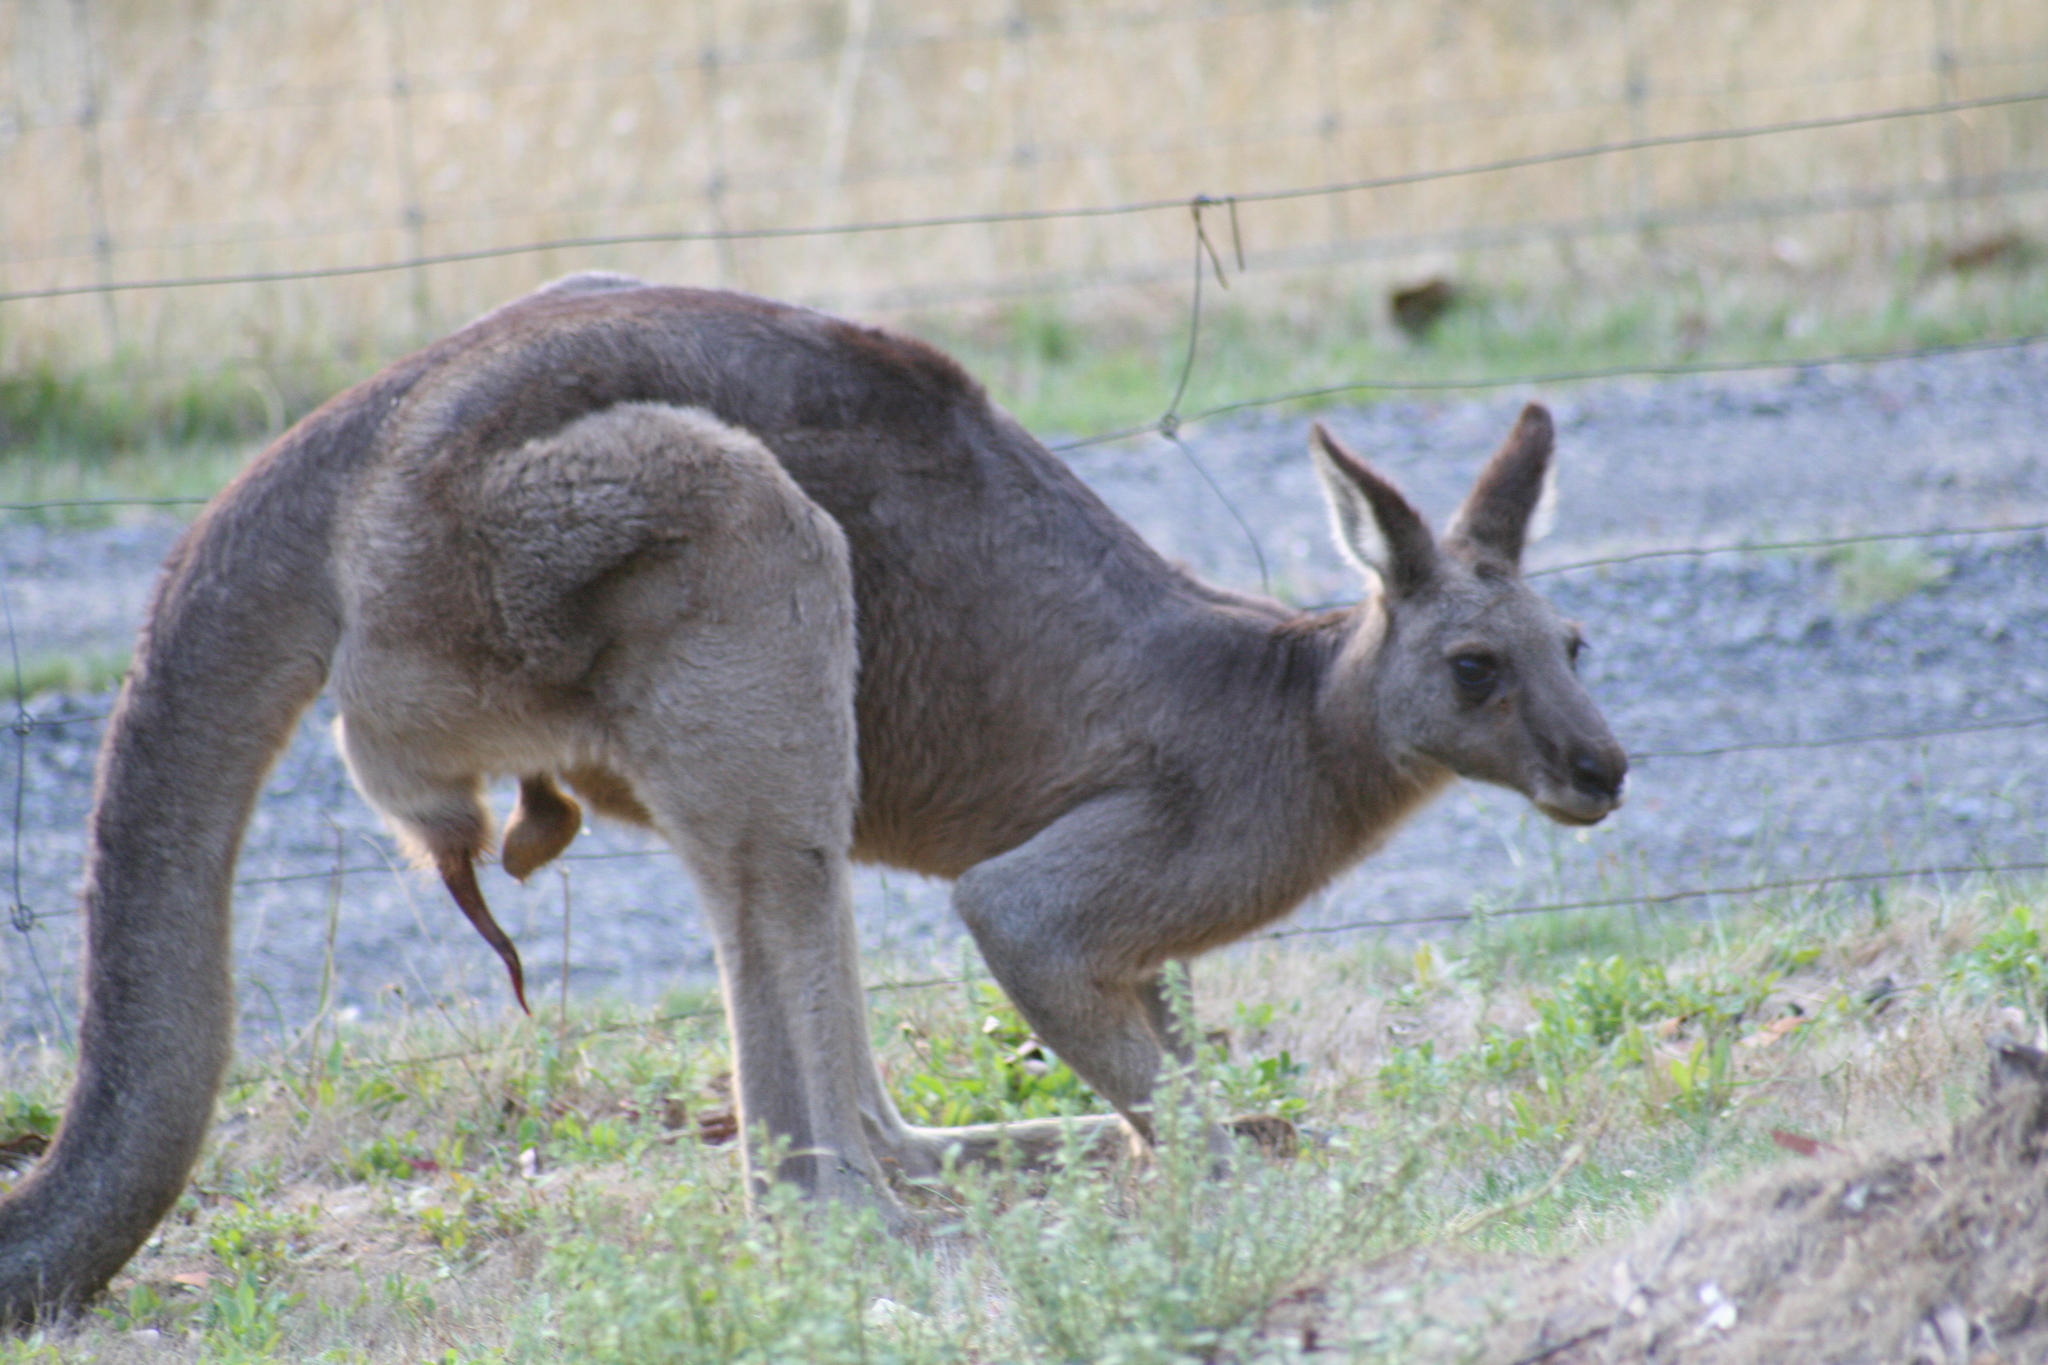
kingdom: Animalia
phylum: Chordata
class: Mammalia
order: Diprotodontia
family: Macropodidae
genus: Macropus
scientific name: Macropus giganteus
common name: Eastern grey kangaroo
